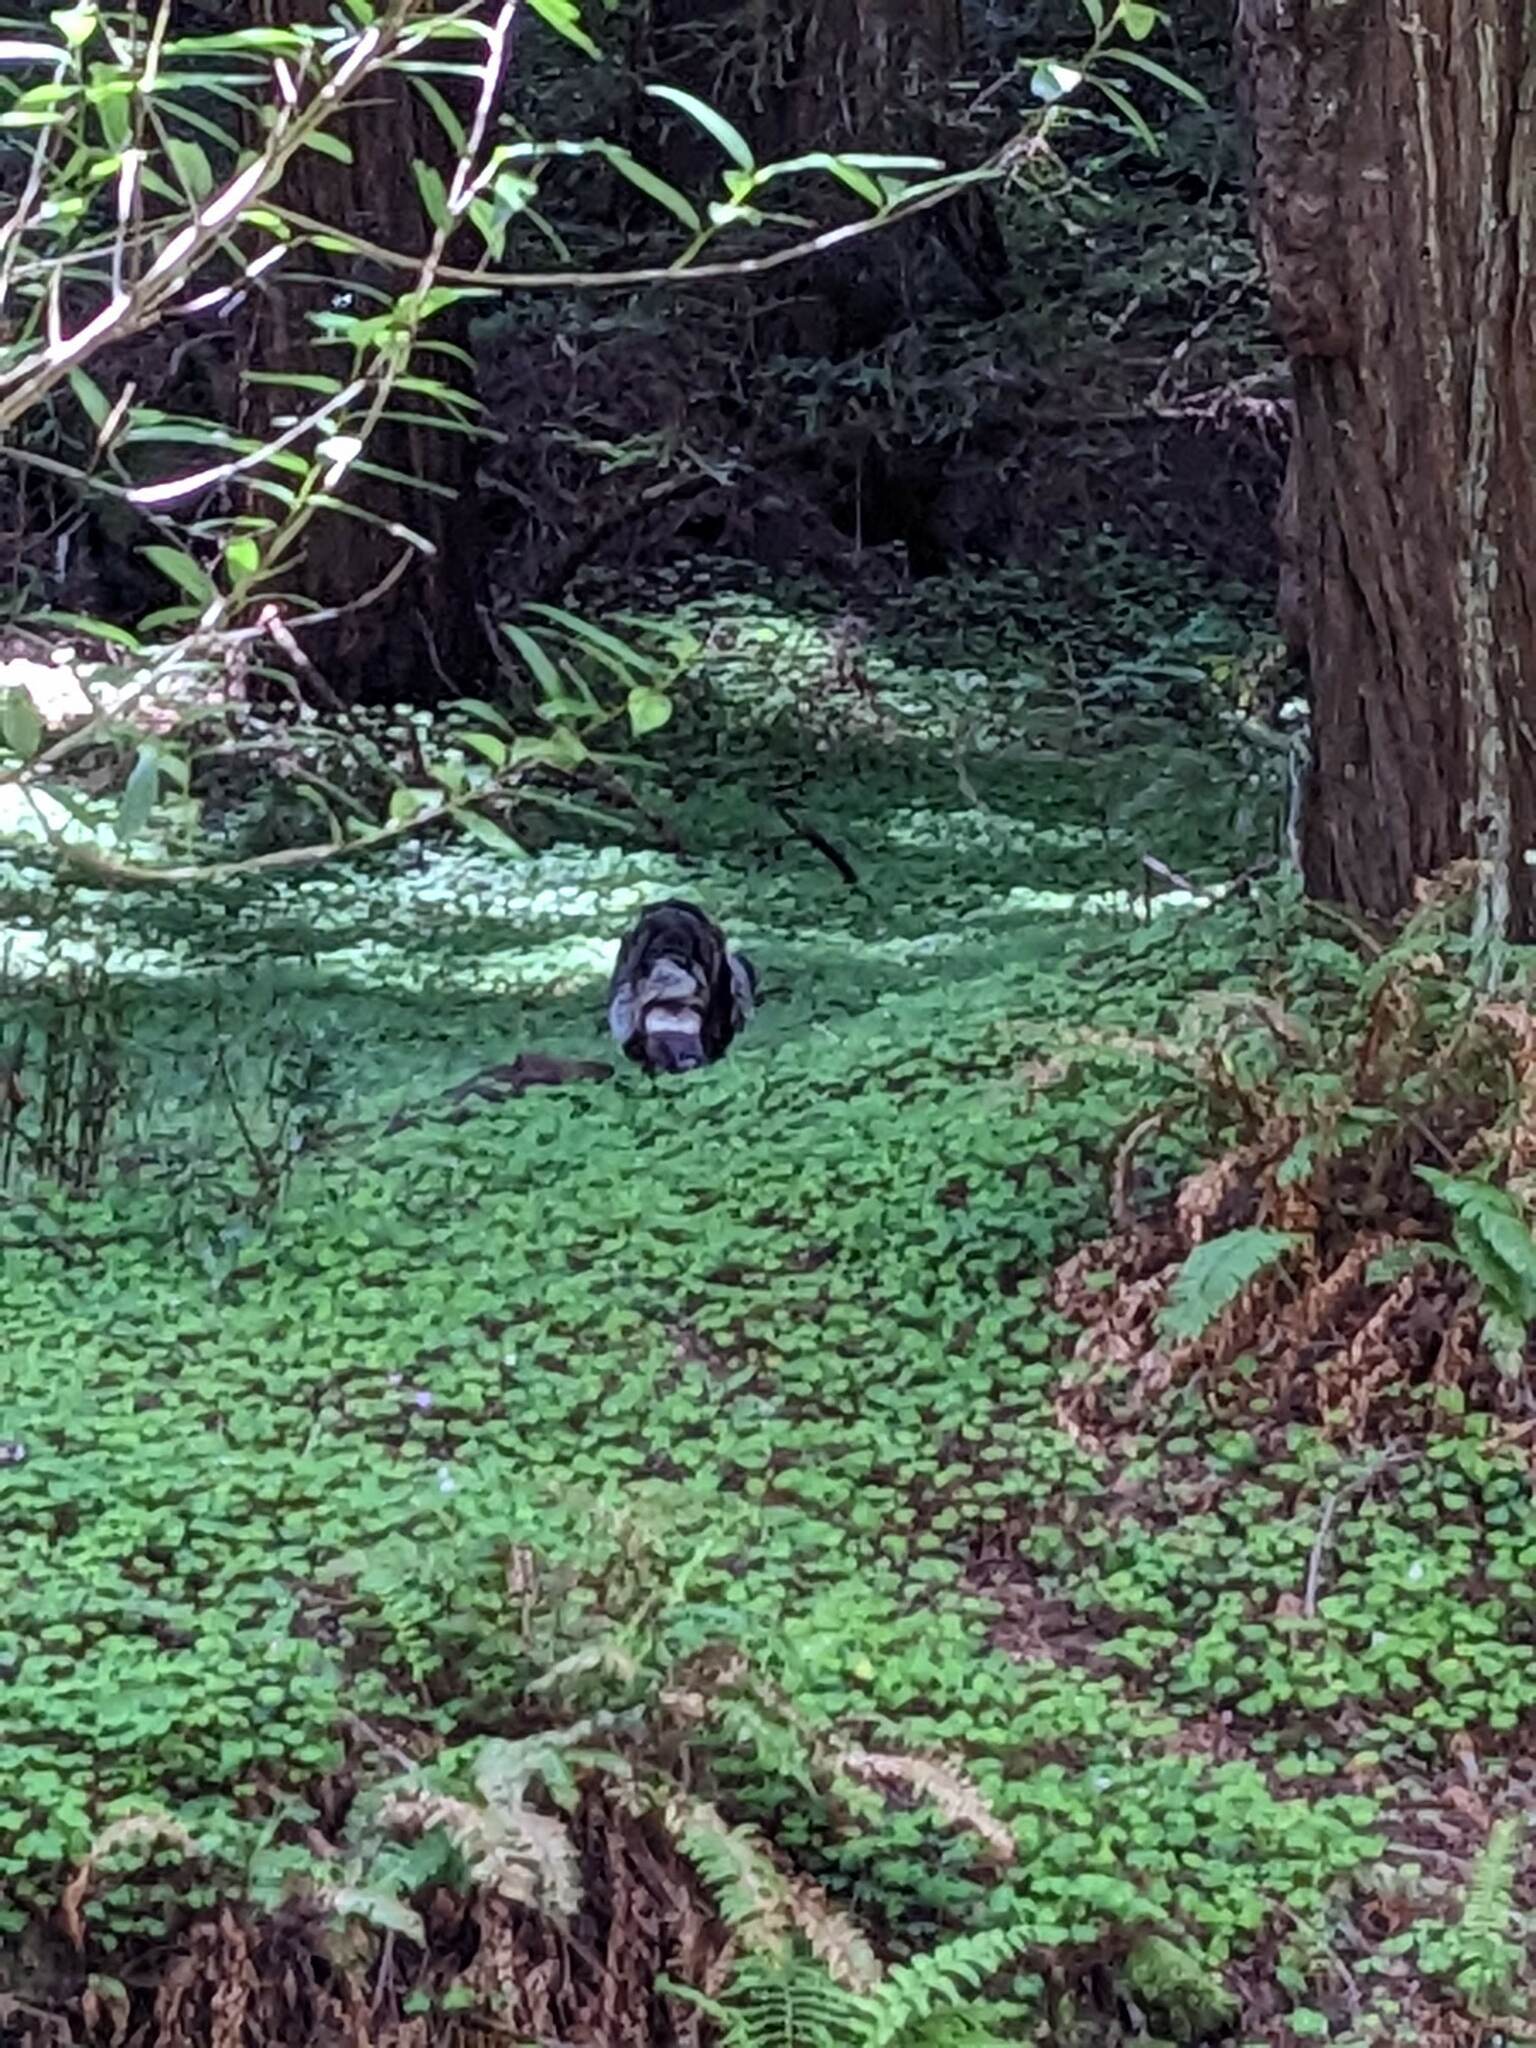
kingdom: Animalia
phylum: Chordata
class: Aves
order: Galliformes
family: Phasianidae
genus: Meleagris
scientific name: Meleagris gallopavo
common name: Wild turkey
